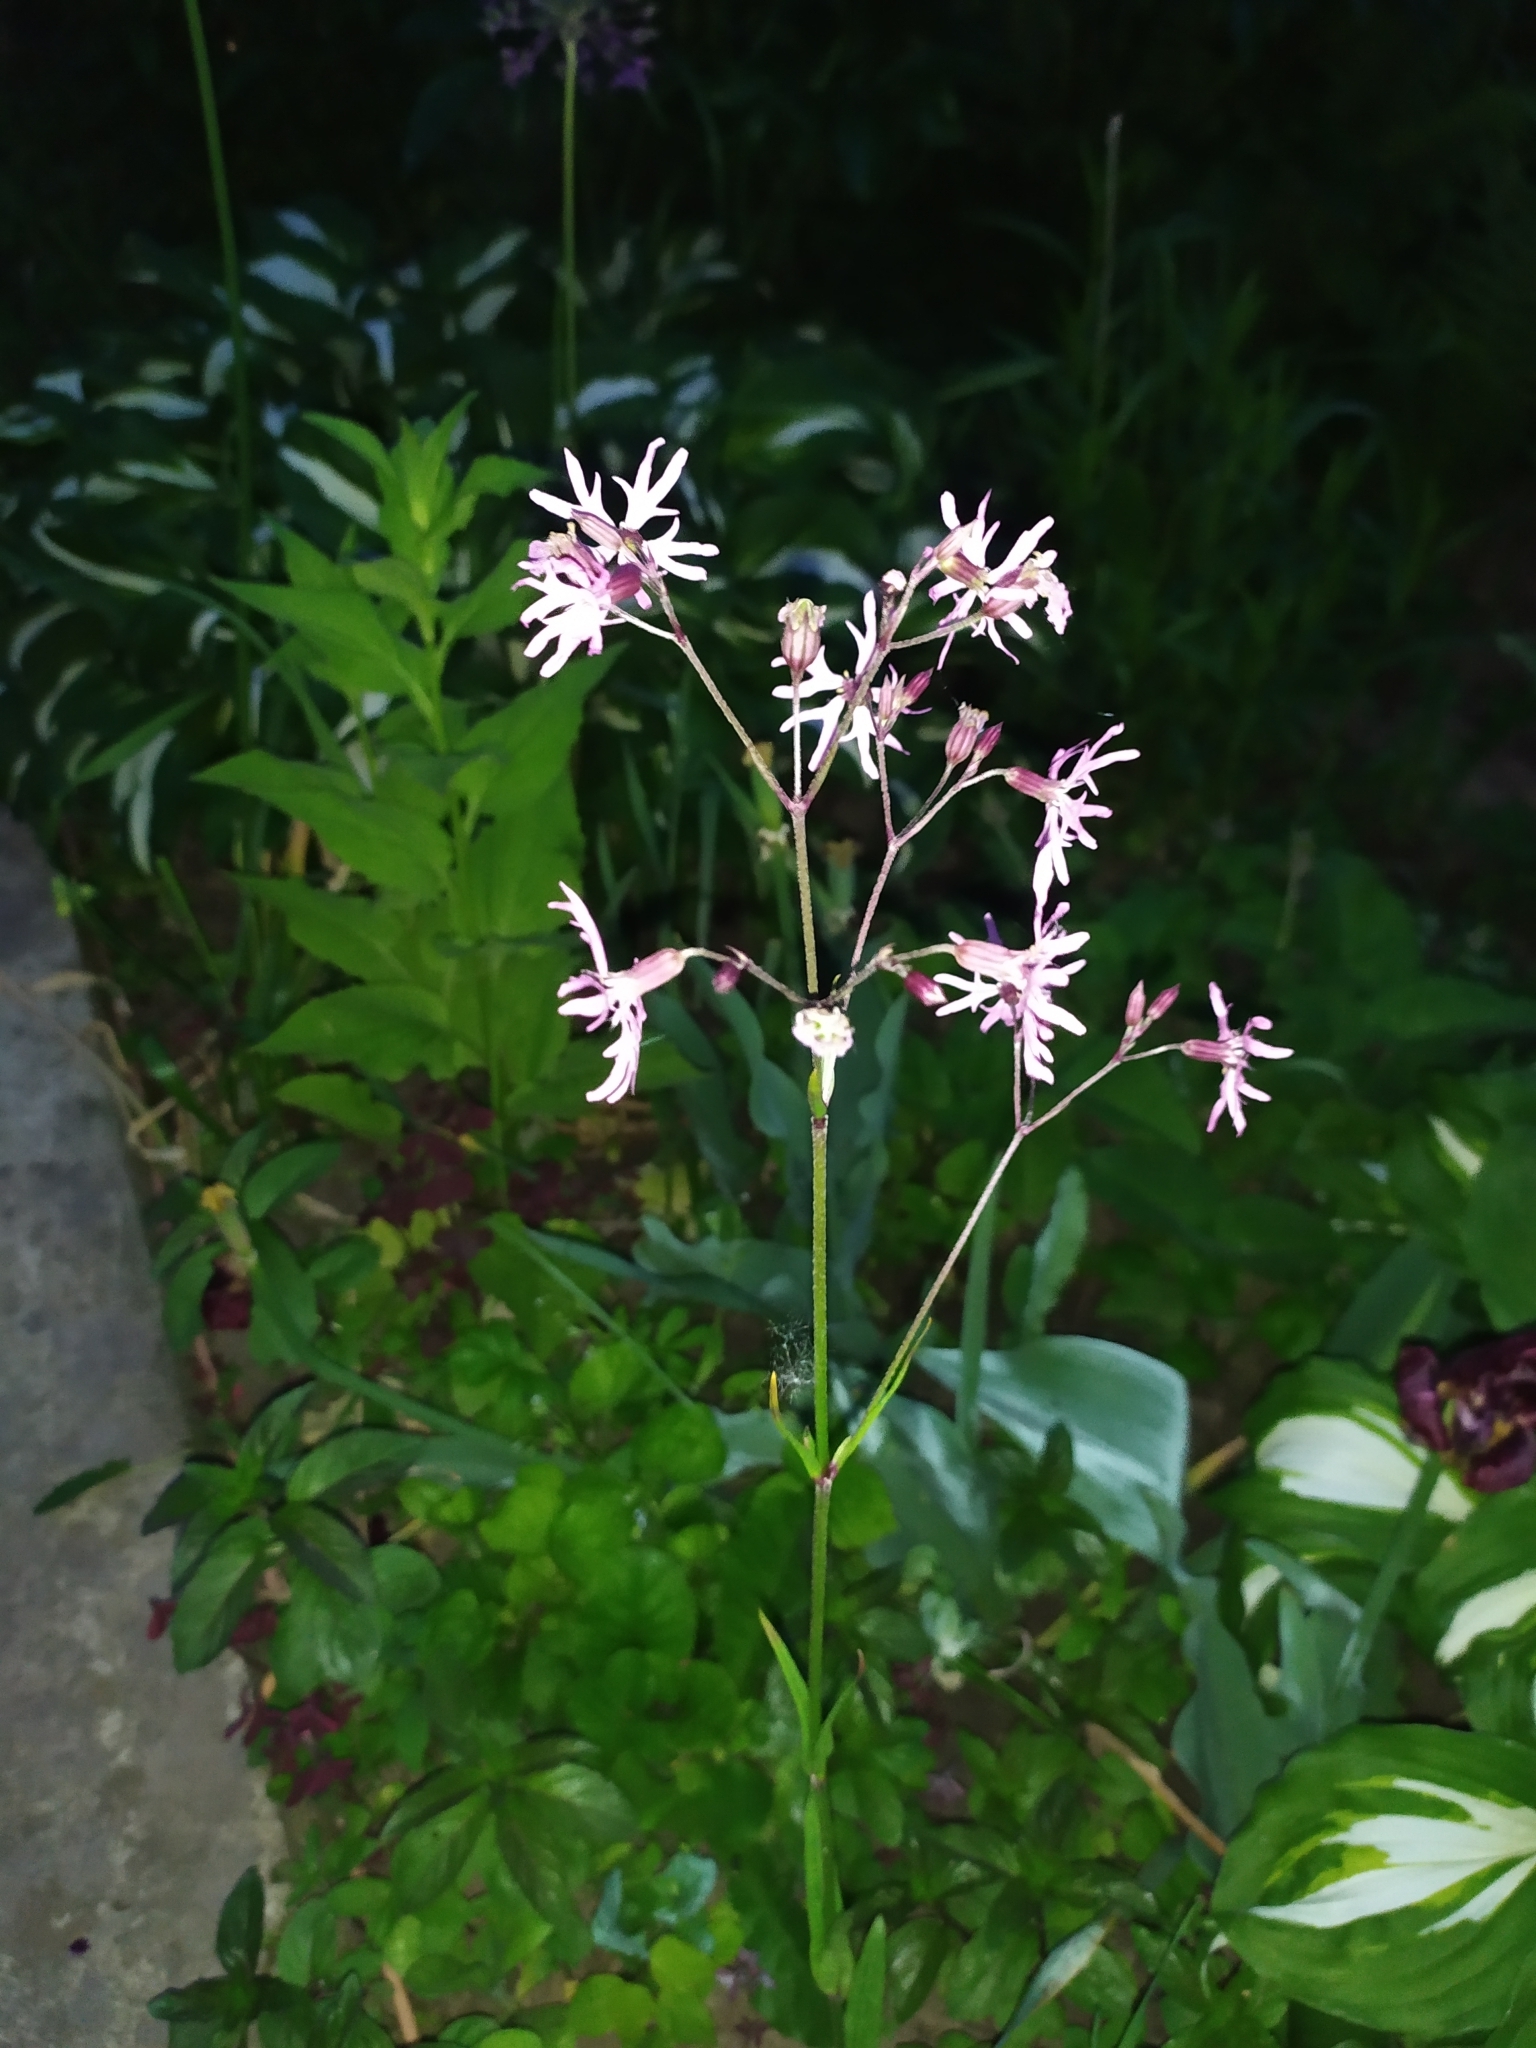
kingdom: Plantae
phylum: Tracheophyta
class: Magnoliopsida
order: Caryophyllales
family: Caryophyllaceae
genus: Silene
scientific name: Silene flos-cuculi
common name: Ragged-robin
